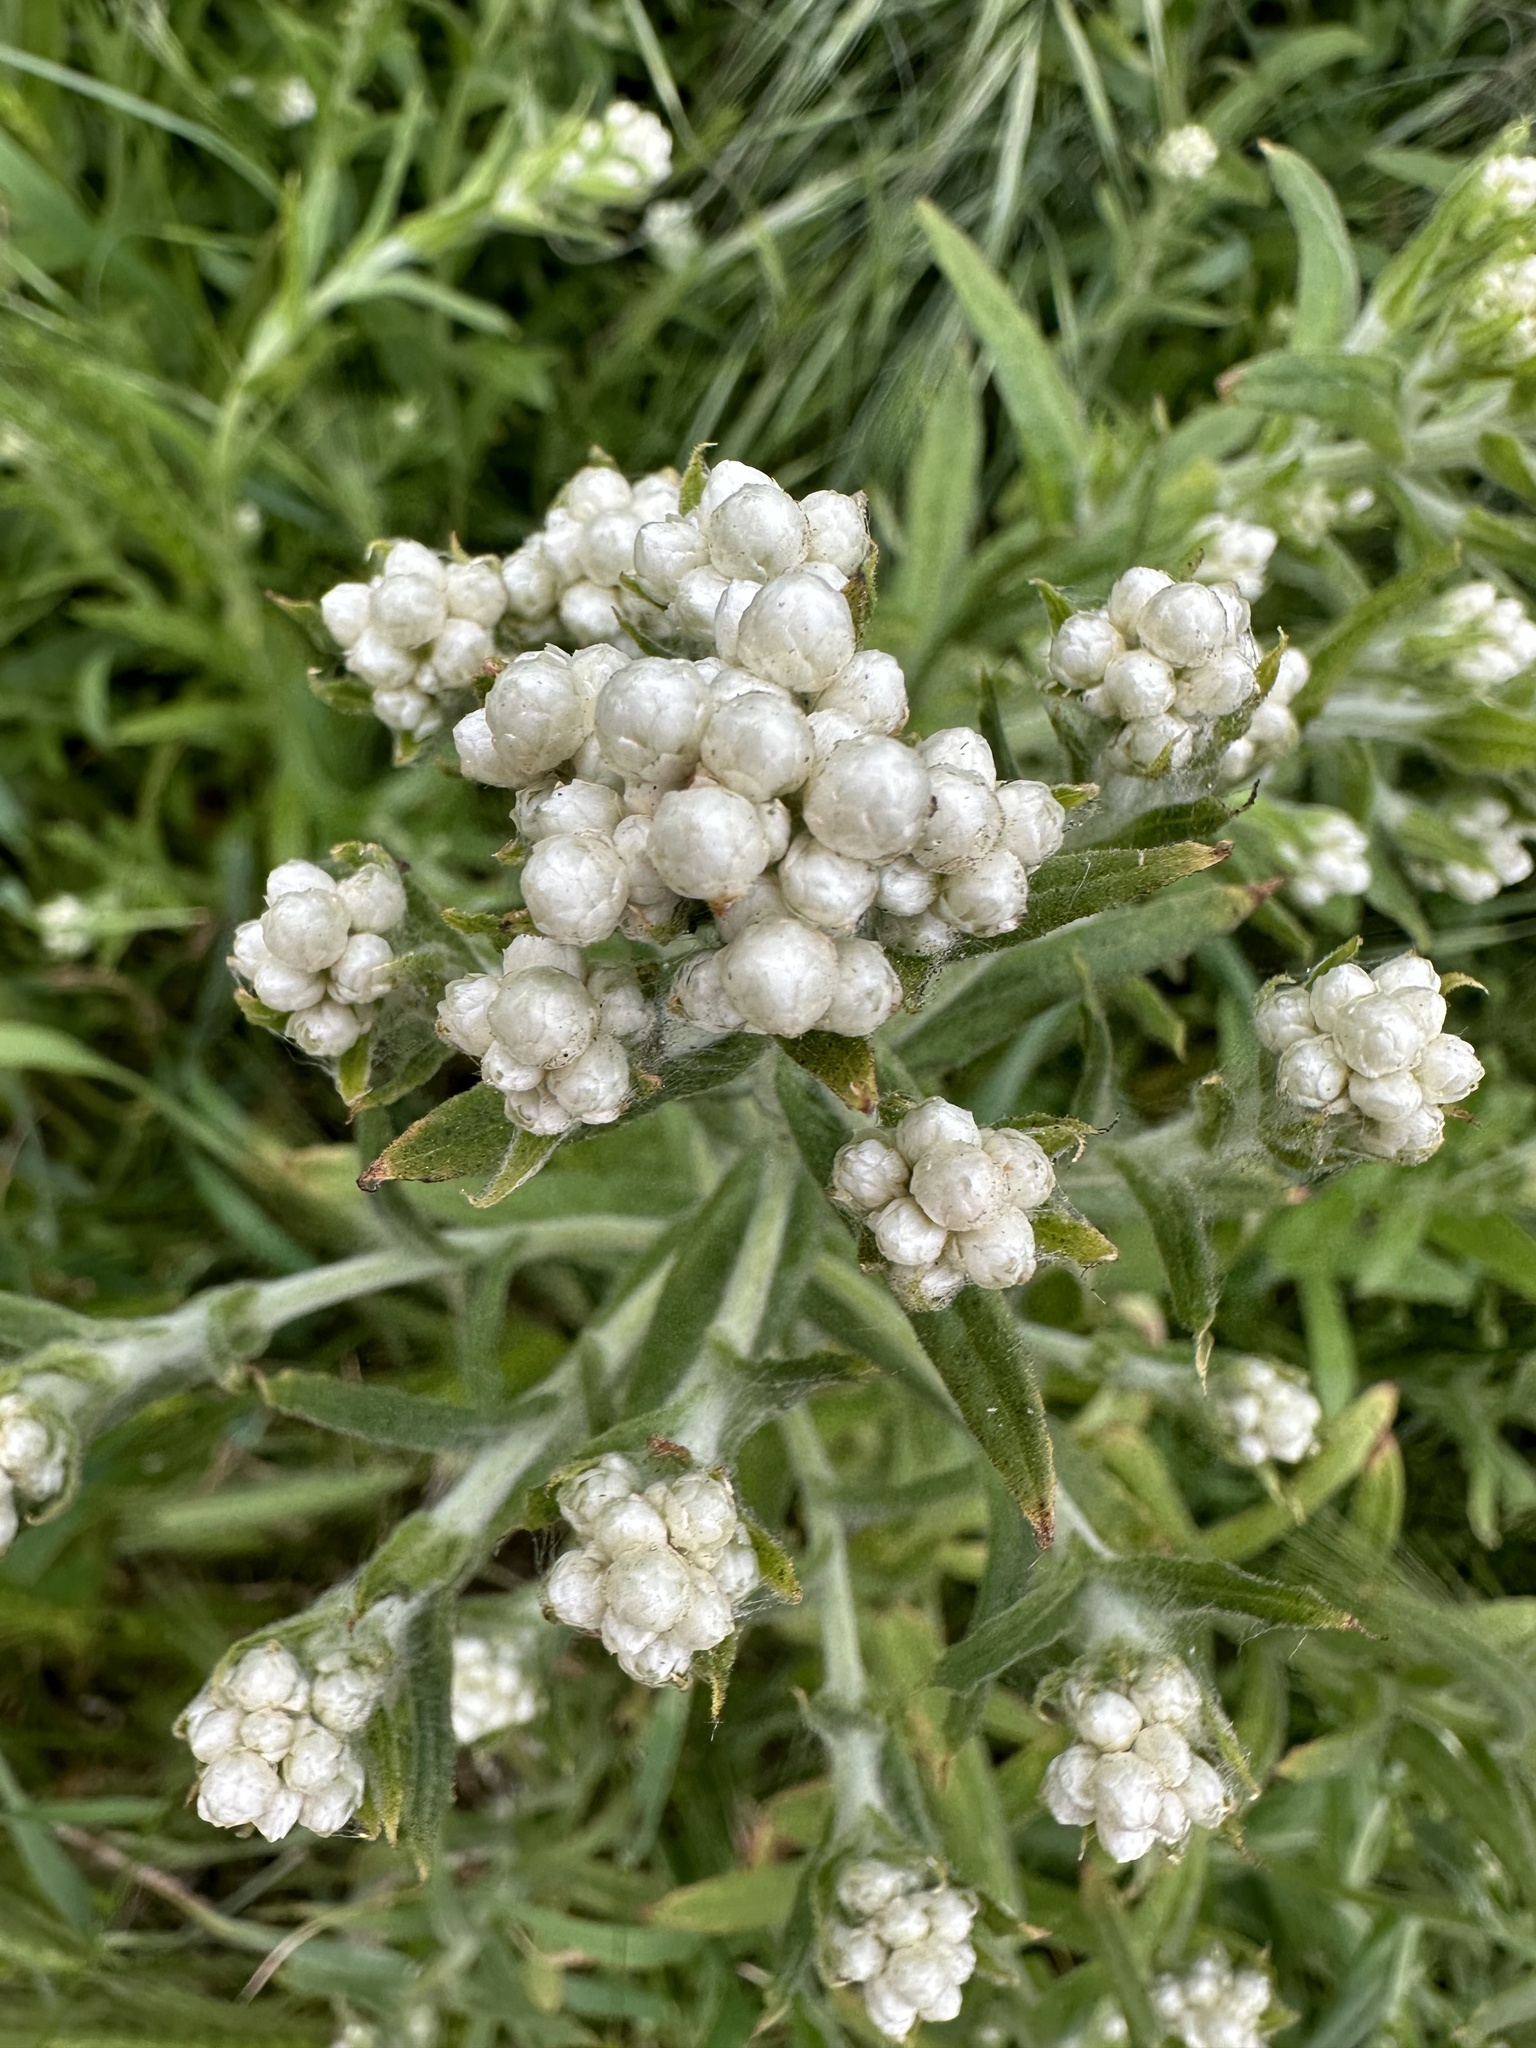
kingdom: Plantae
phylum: Tracheophyta
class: Magnoliopsida
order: Asterales
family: Asteraceae
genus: Pseudognaphalium
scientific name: Pseudognaphalium californicum
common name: California rabbit-tobacco
